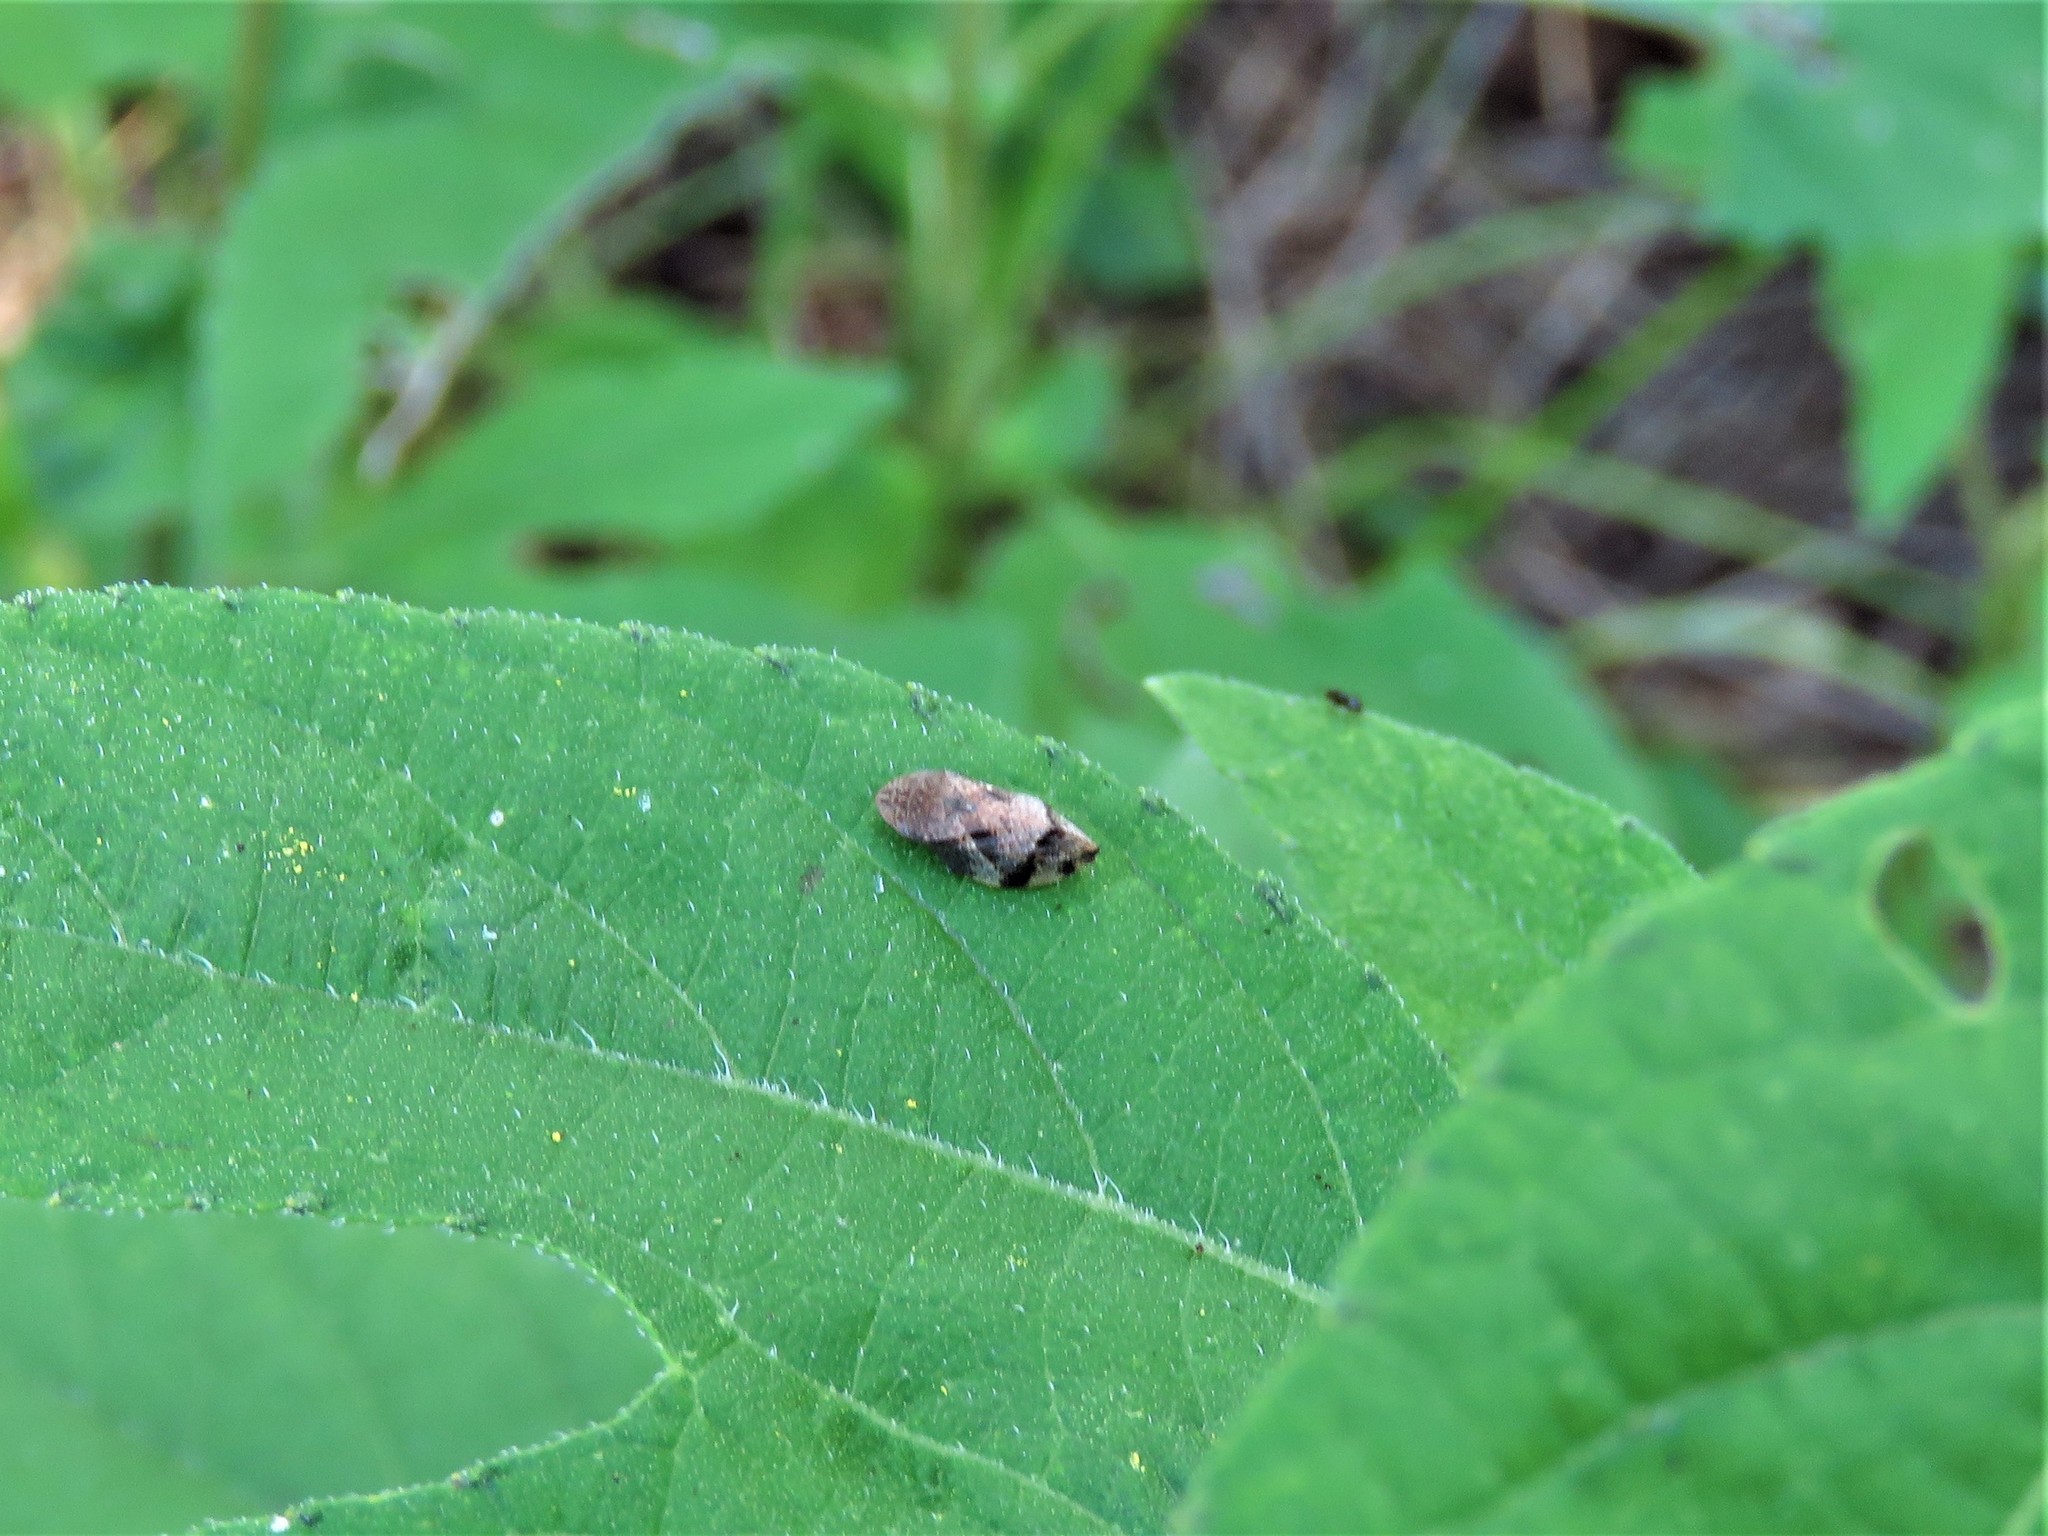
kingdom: Animalia
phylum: Arthropoda
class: Insecta
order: Hemiptera
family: Aphrophoridae
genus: Lepyronia
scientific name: Lepyronia quadrangularis
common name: Diamond-backed spittlebug
